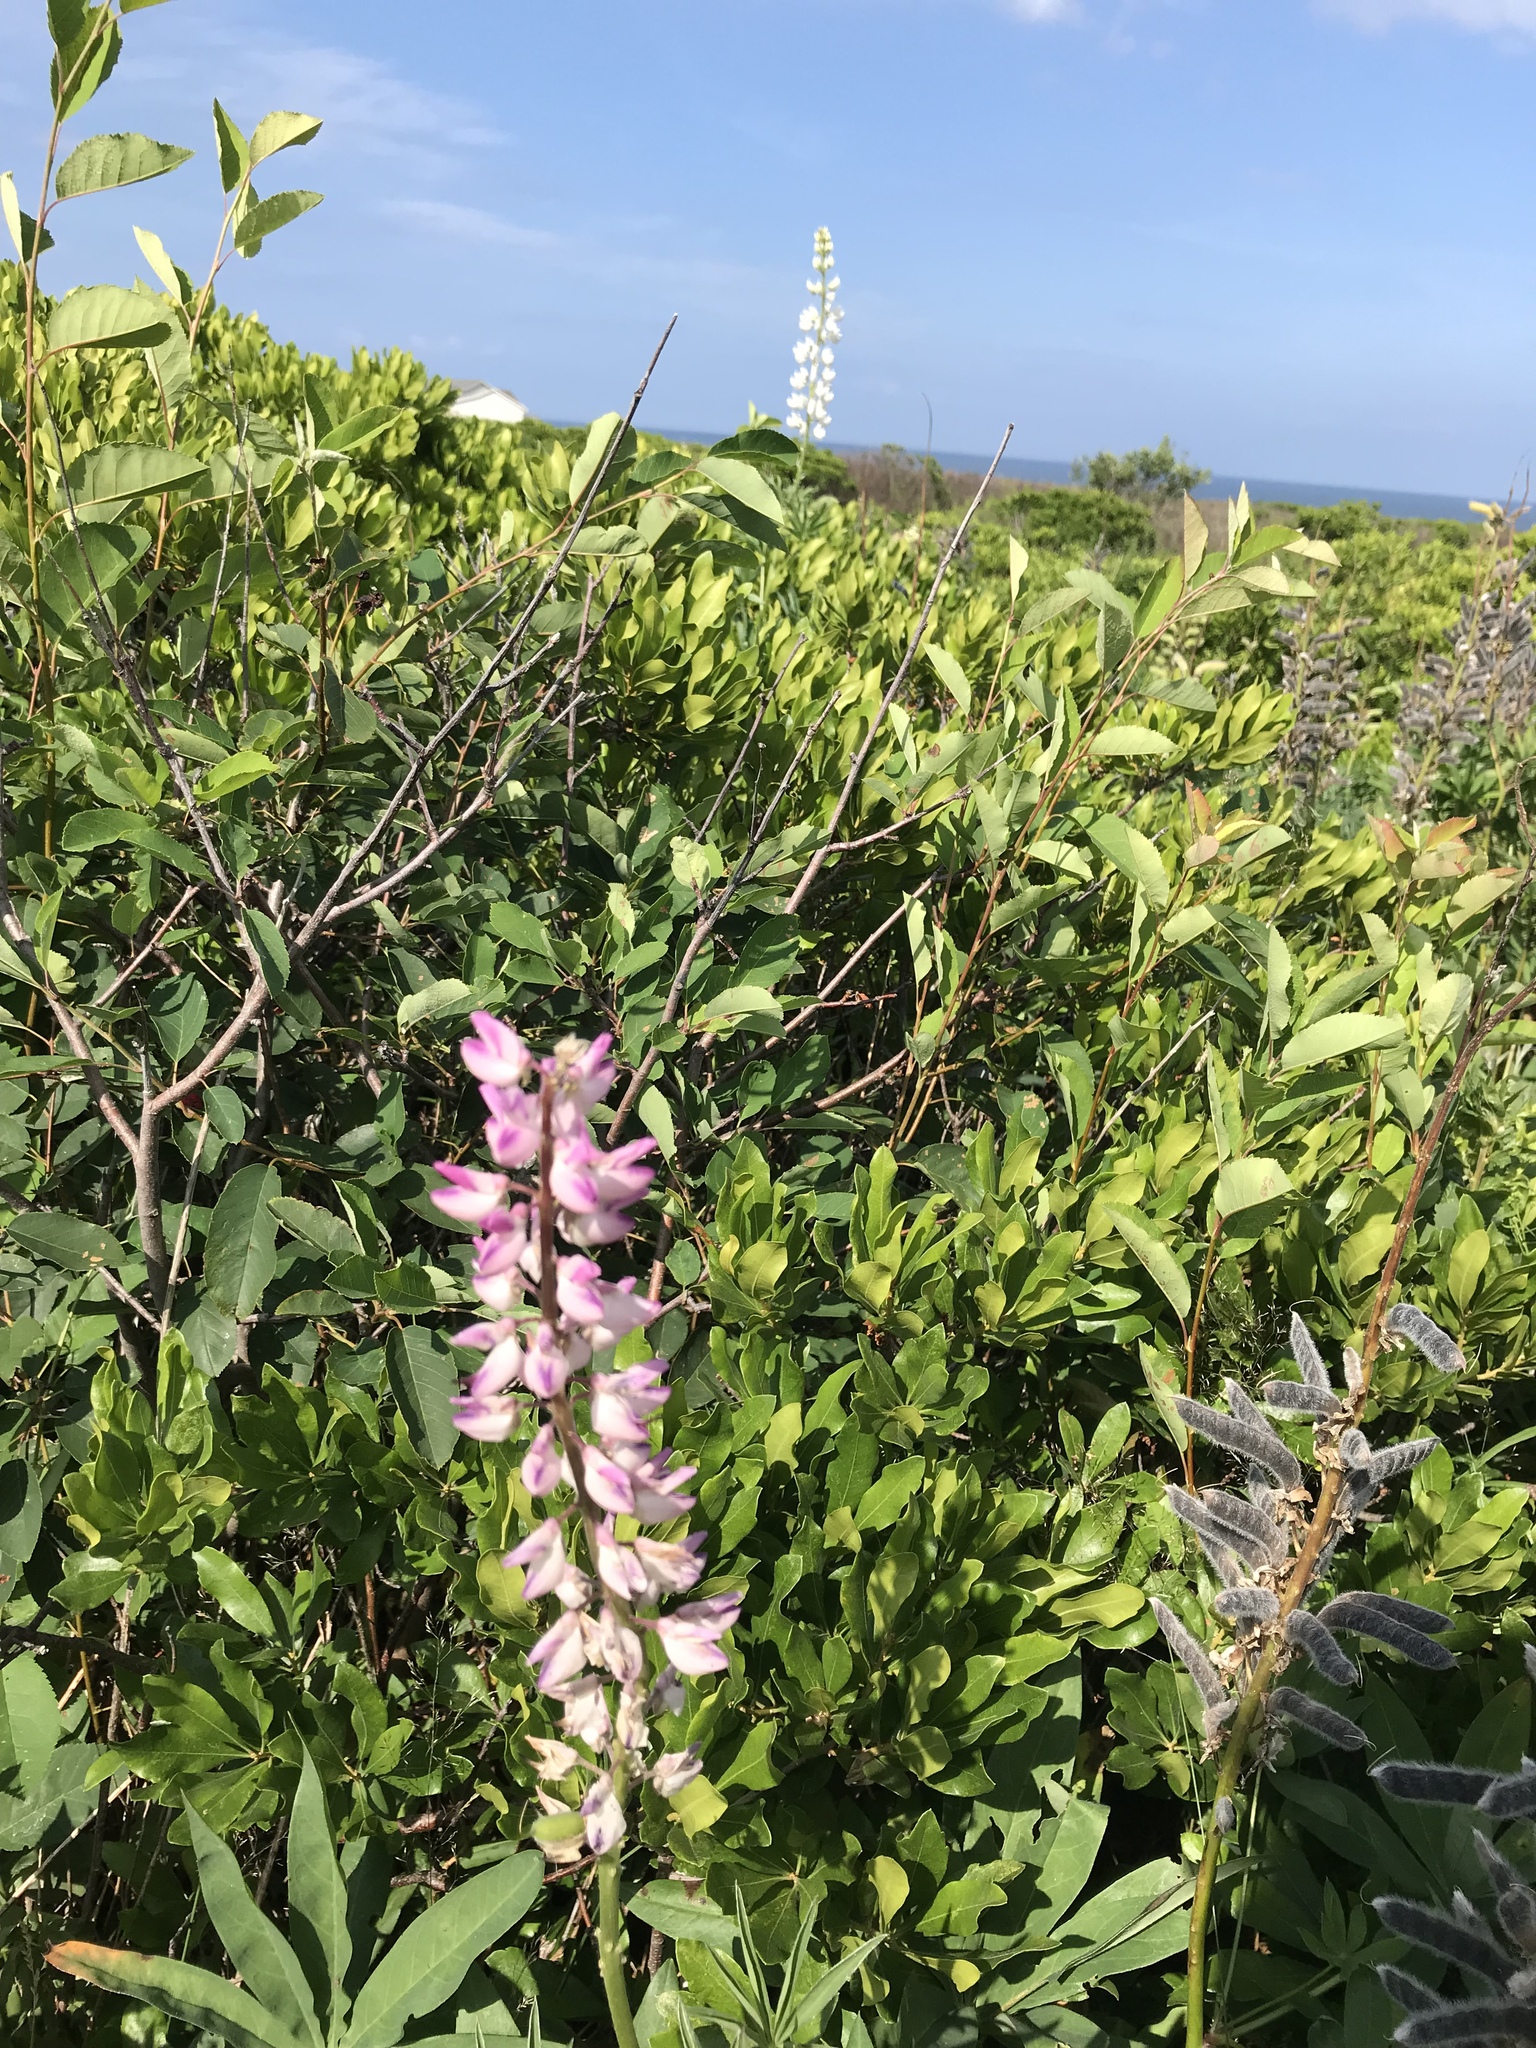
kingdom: Plantae
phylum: Tracheophyta
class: Magnoliopsida
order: Fabales
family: Fabaceae
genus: Lupinus
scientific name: Lupinus polyphyllus
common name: Garden lupin
